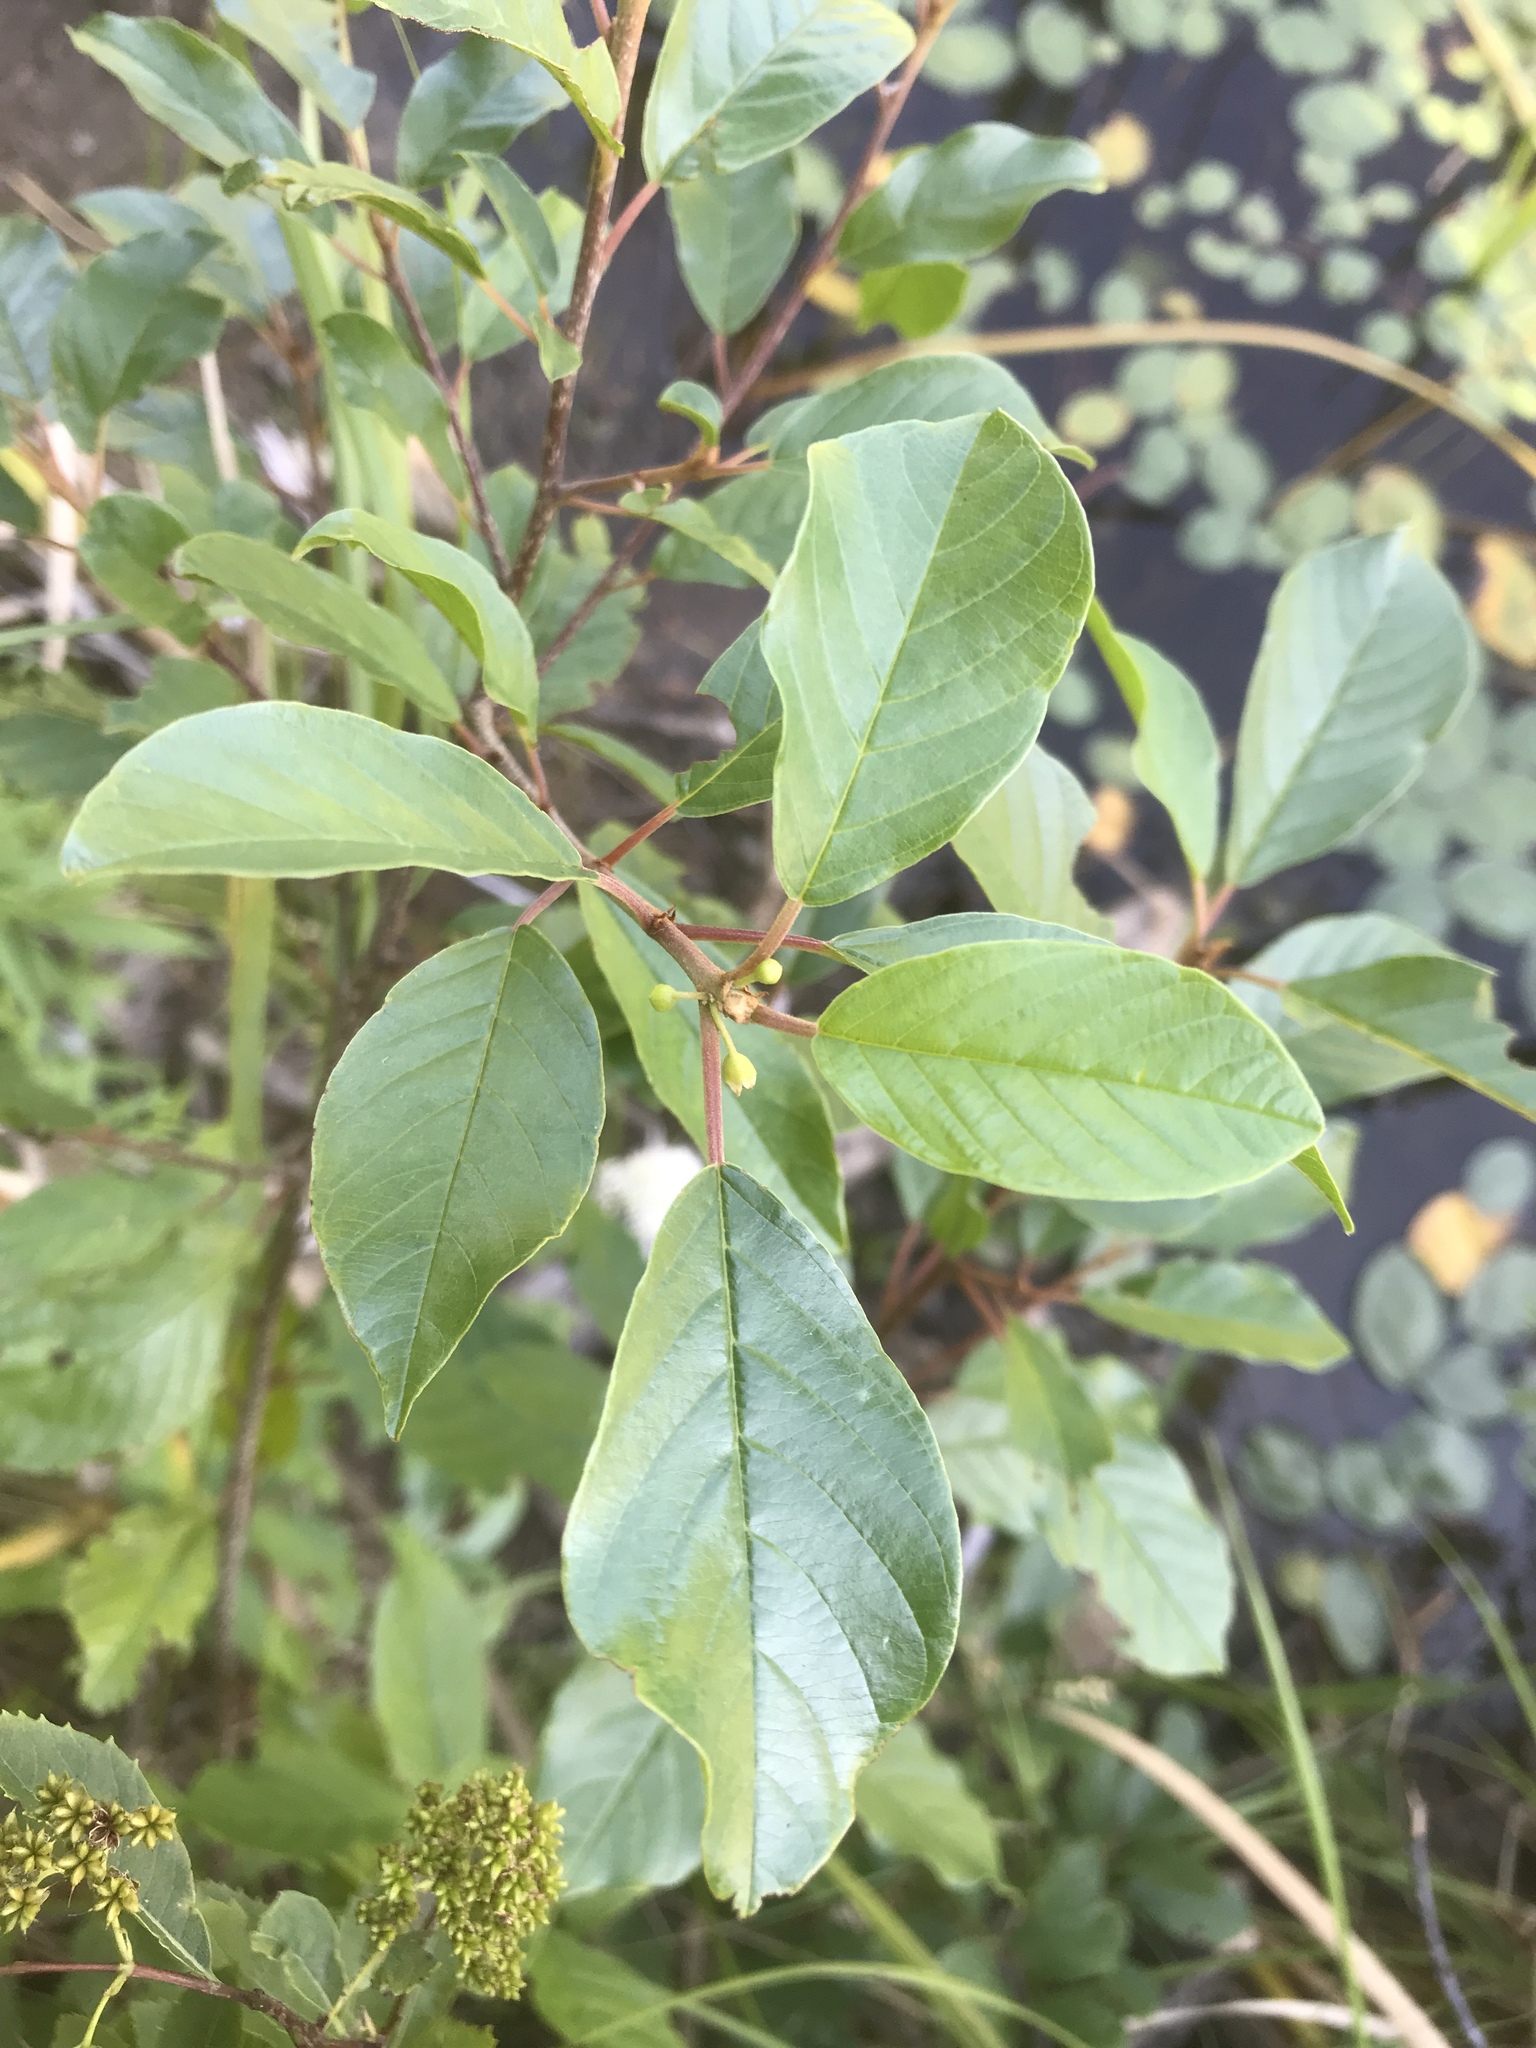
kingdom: Plantae
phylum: Tracheophyta
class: Magnoliopsida
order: Rosales
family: Rhamnaceae
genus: Frangula
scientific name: Frangula alnus
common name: Alder buckthorn
